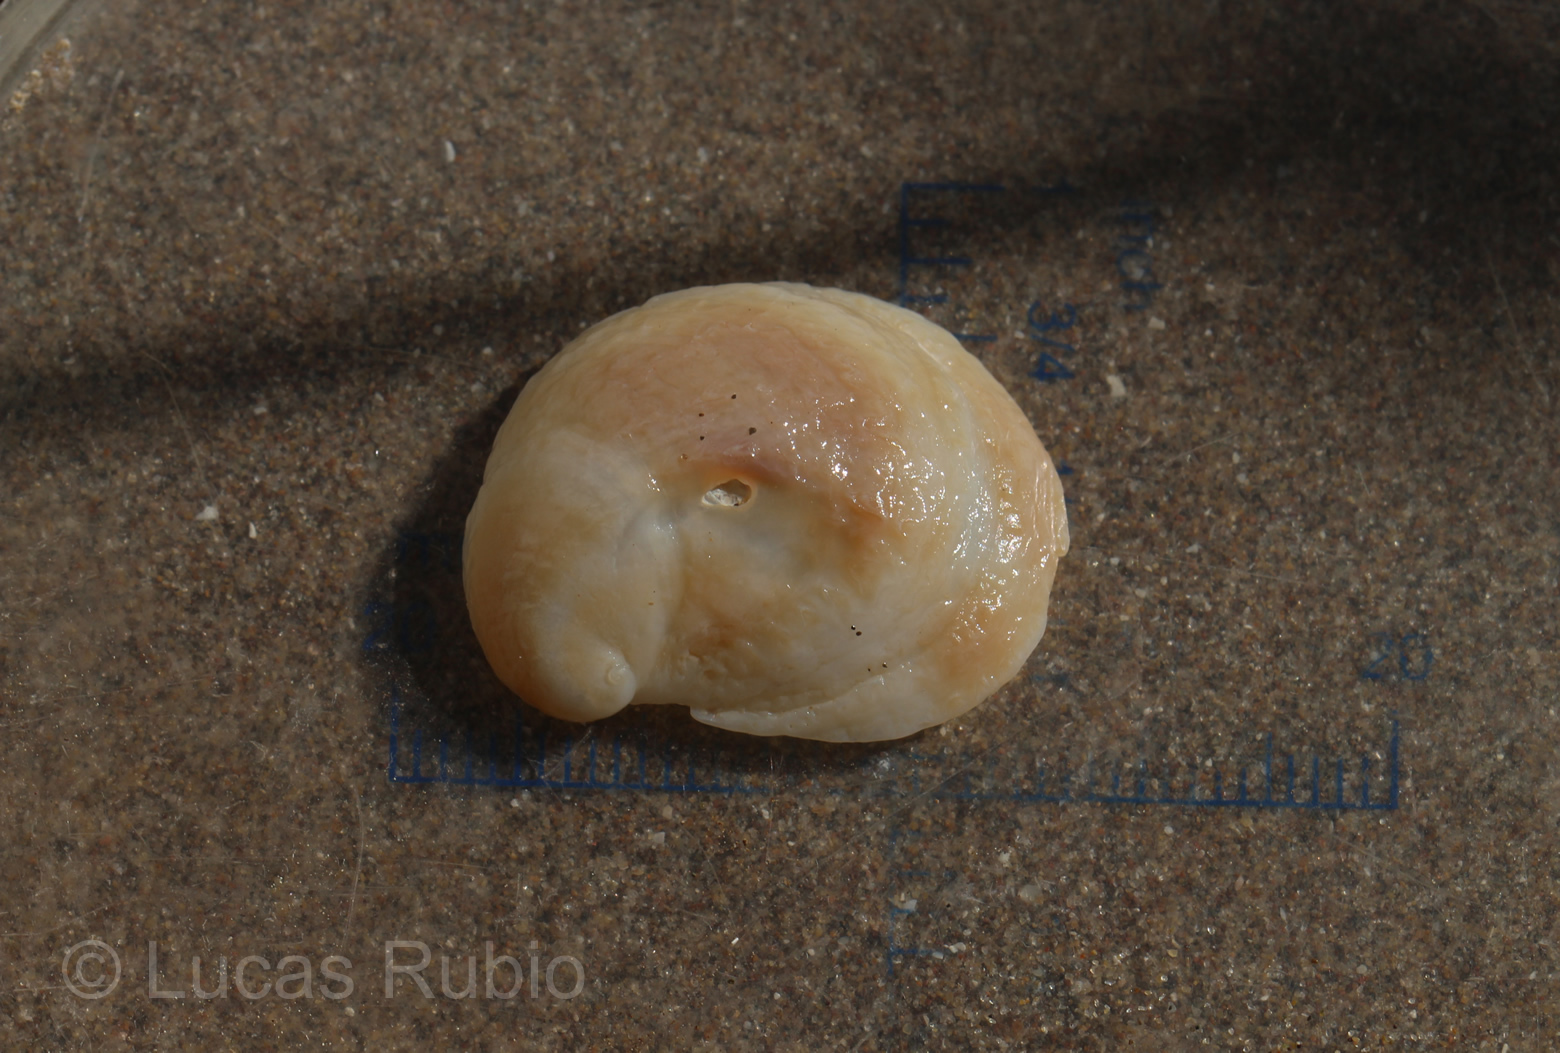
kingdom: Animalia
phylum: Mollusca
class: Gastropoda
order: Littorinimorpha
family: Calyptraeidae
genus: Bostrycapulus
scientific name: Bostrycapulus odites
